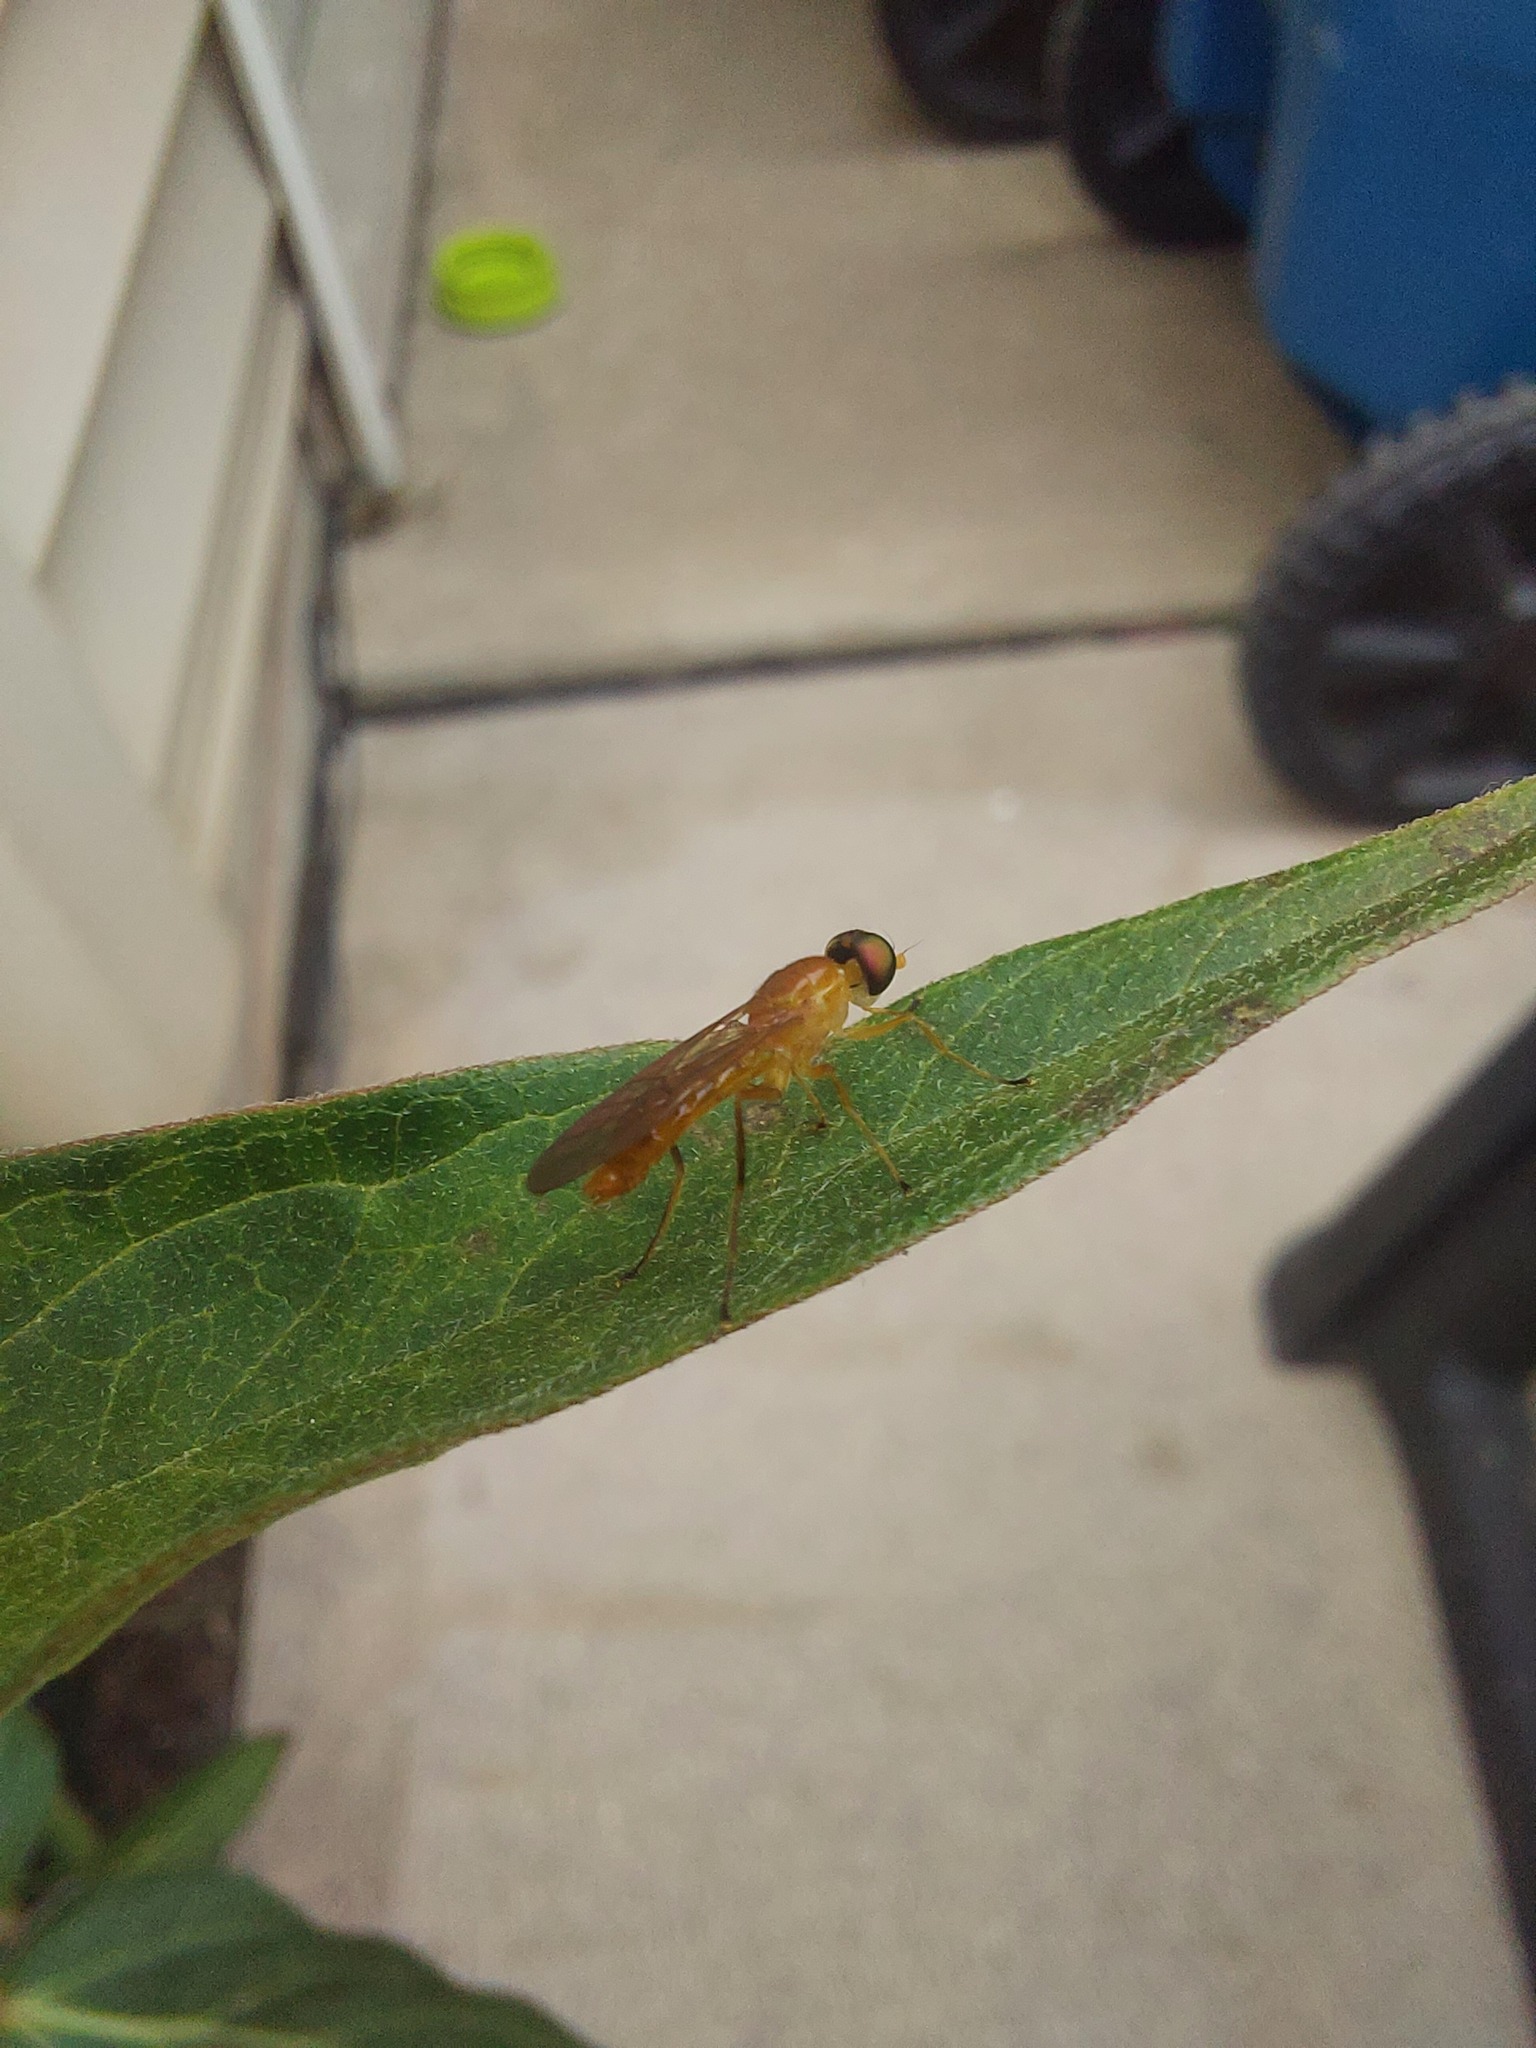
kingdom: Animalia
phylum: Arthropoda
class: Insecta
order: Diptera
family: Stratiomyidae
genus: Ptecticus
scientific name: Ptecticus trivittatus
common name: Compost fly
